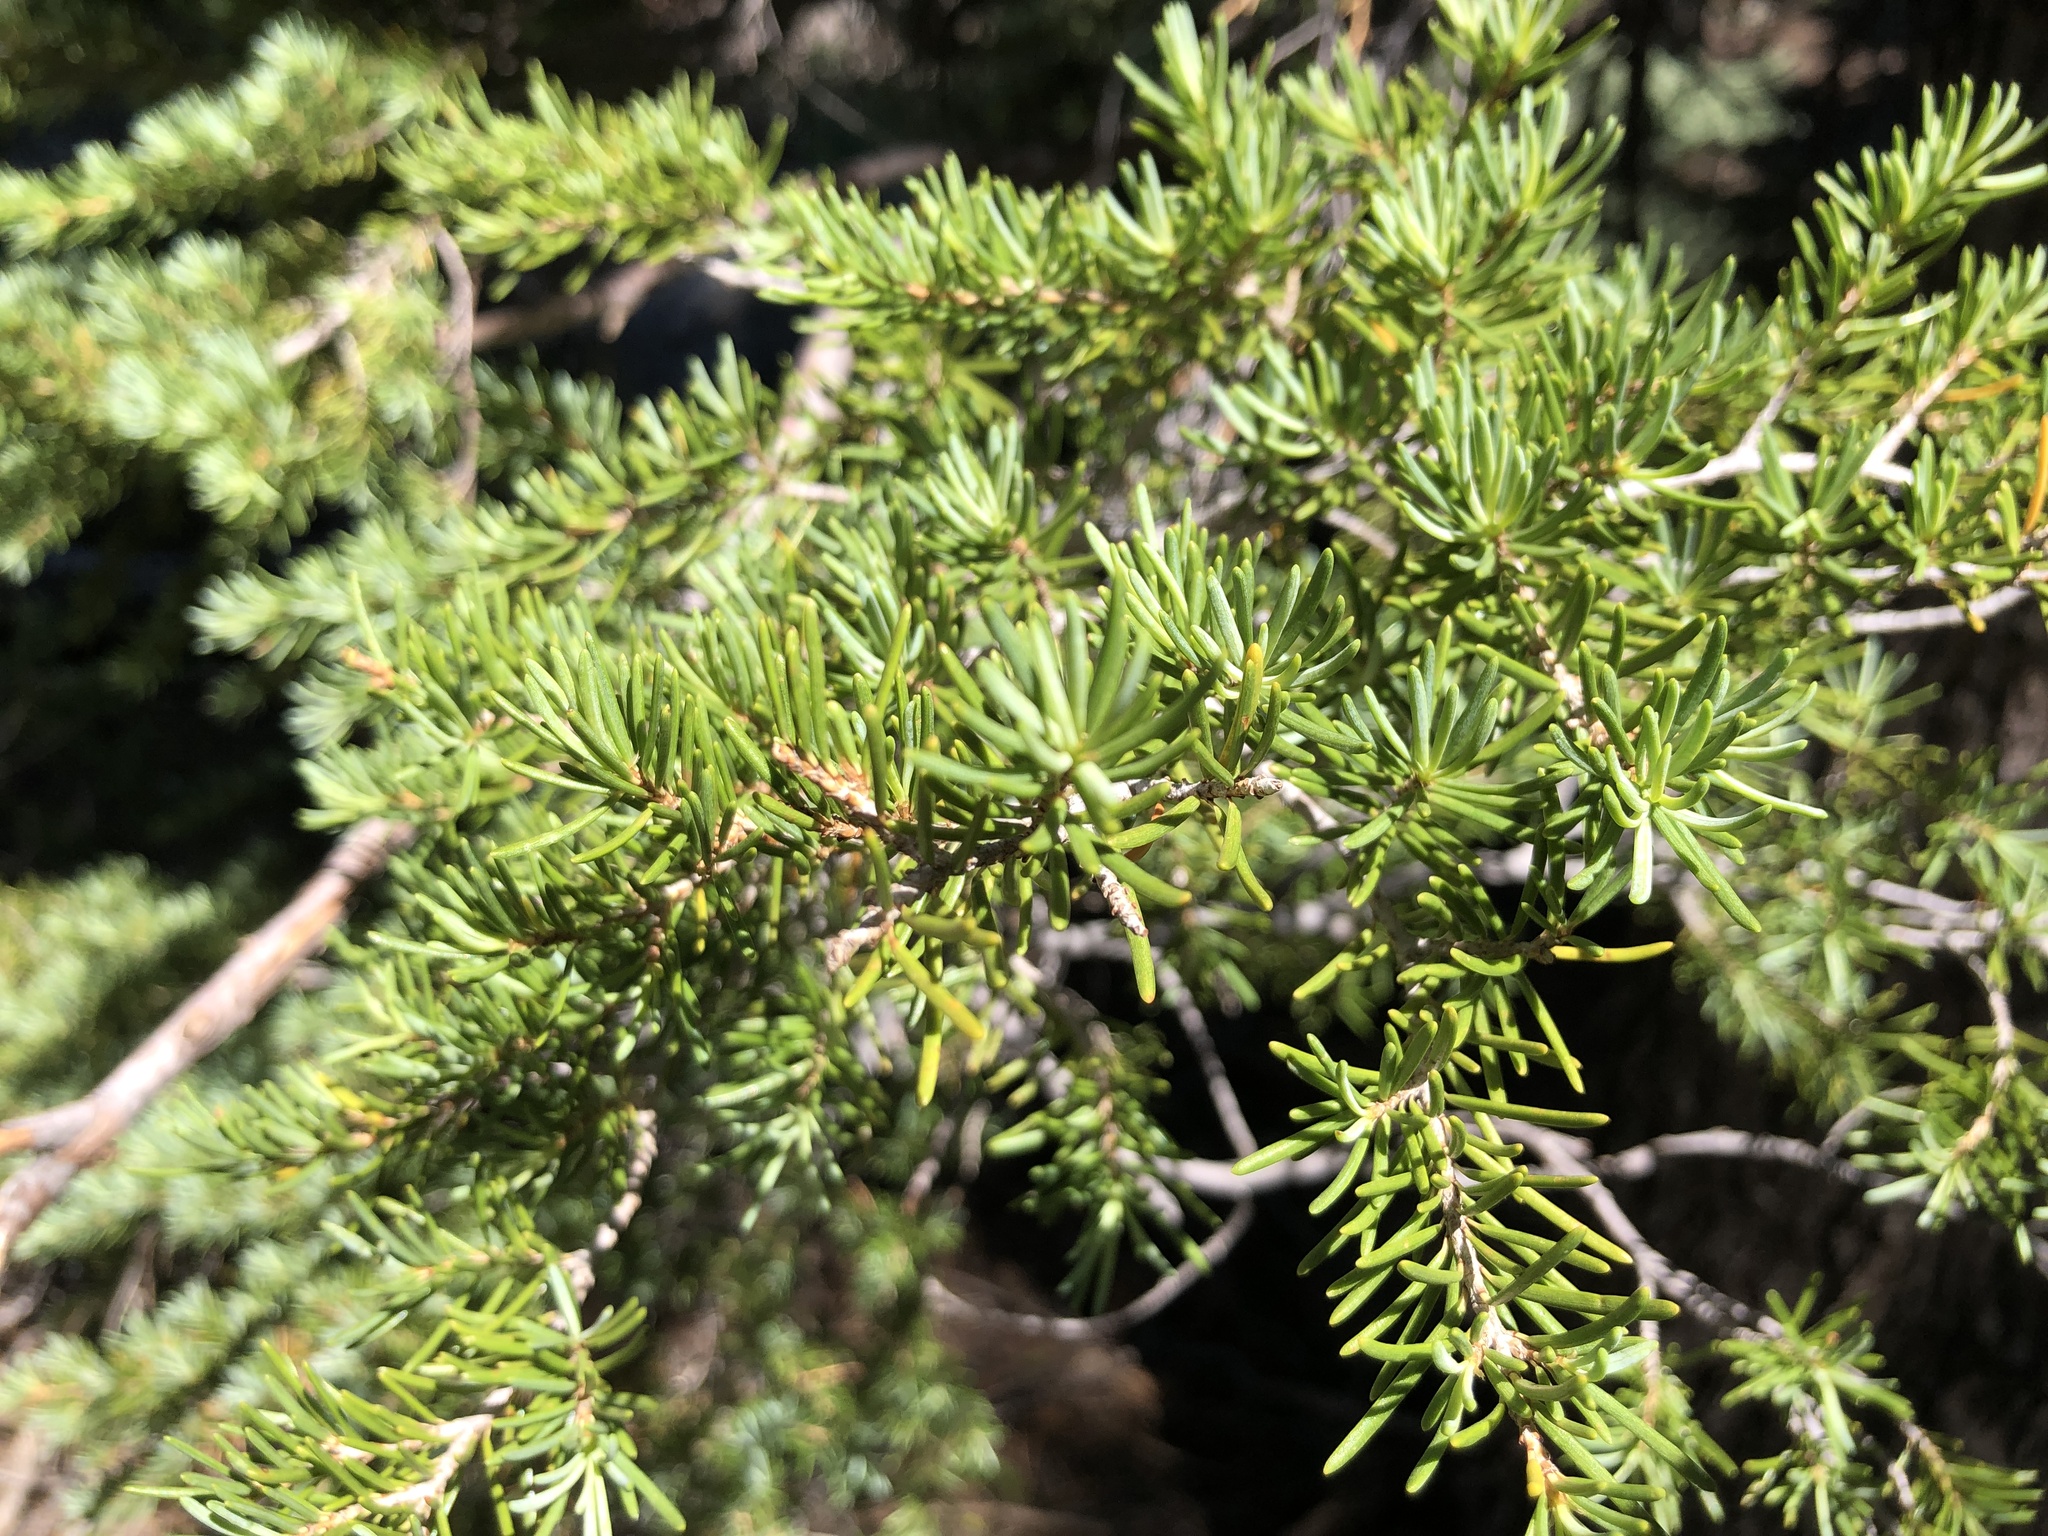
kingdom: Plantae
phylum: Tracheophyta
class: Pinopsida
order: Pinales
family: Pinaceae
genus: Tsuga
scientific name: Tsuga mertensiana
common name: Mountain hemlock
